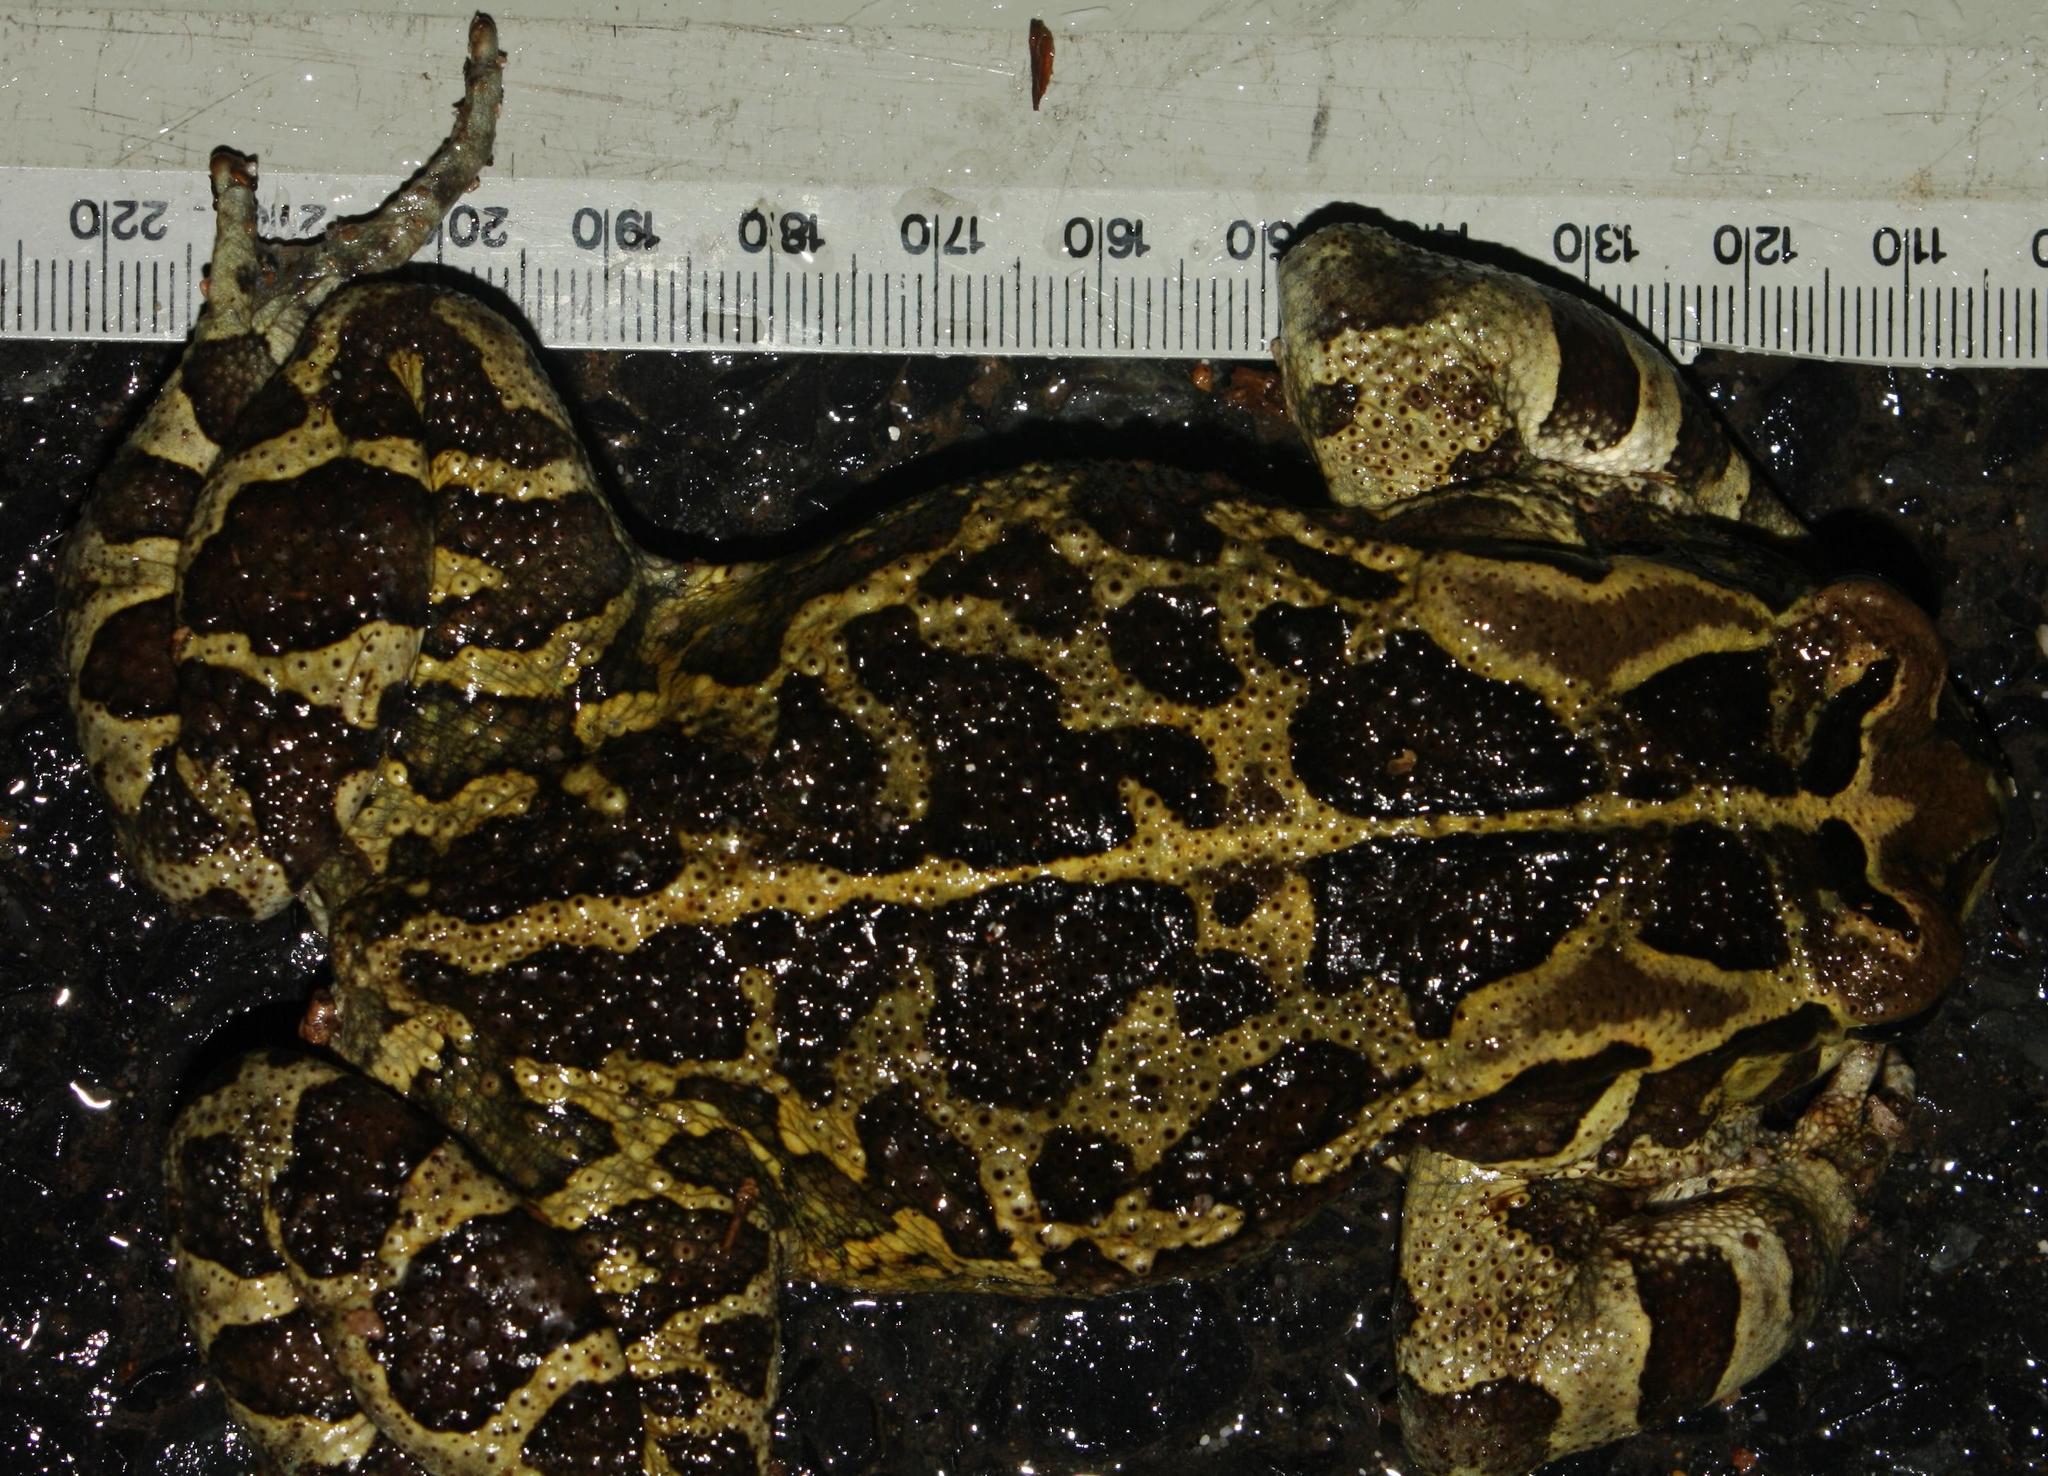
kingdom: Animalia
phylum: Chordata
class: Amphibia
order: Anura
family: Bufonidae
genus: Sclerophrys
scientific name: Sclerophrys pantherina
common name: Panther toad
